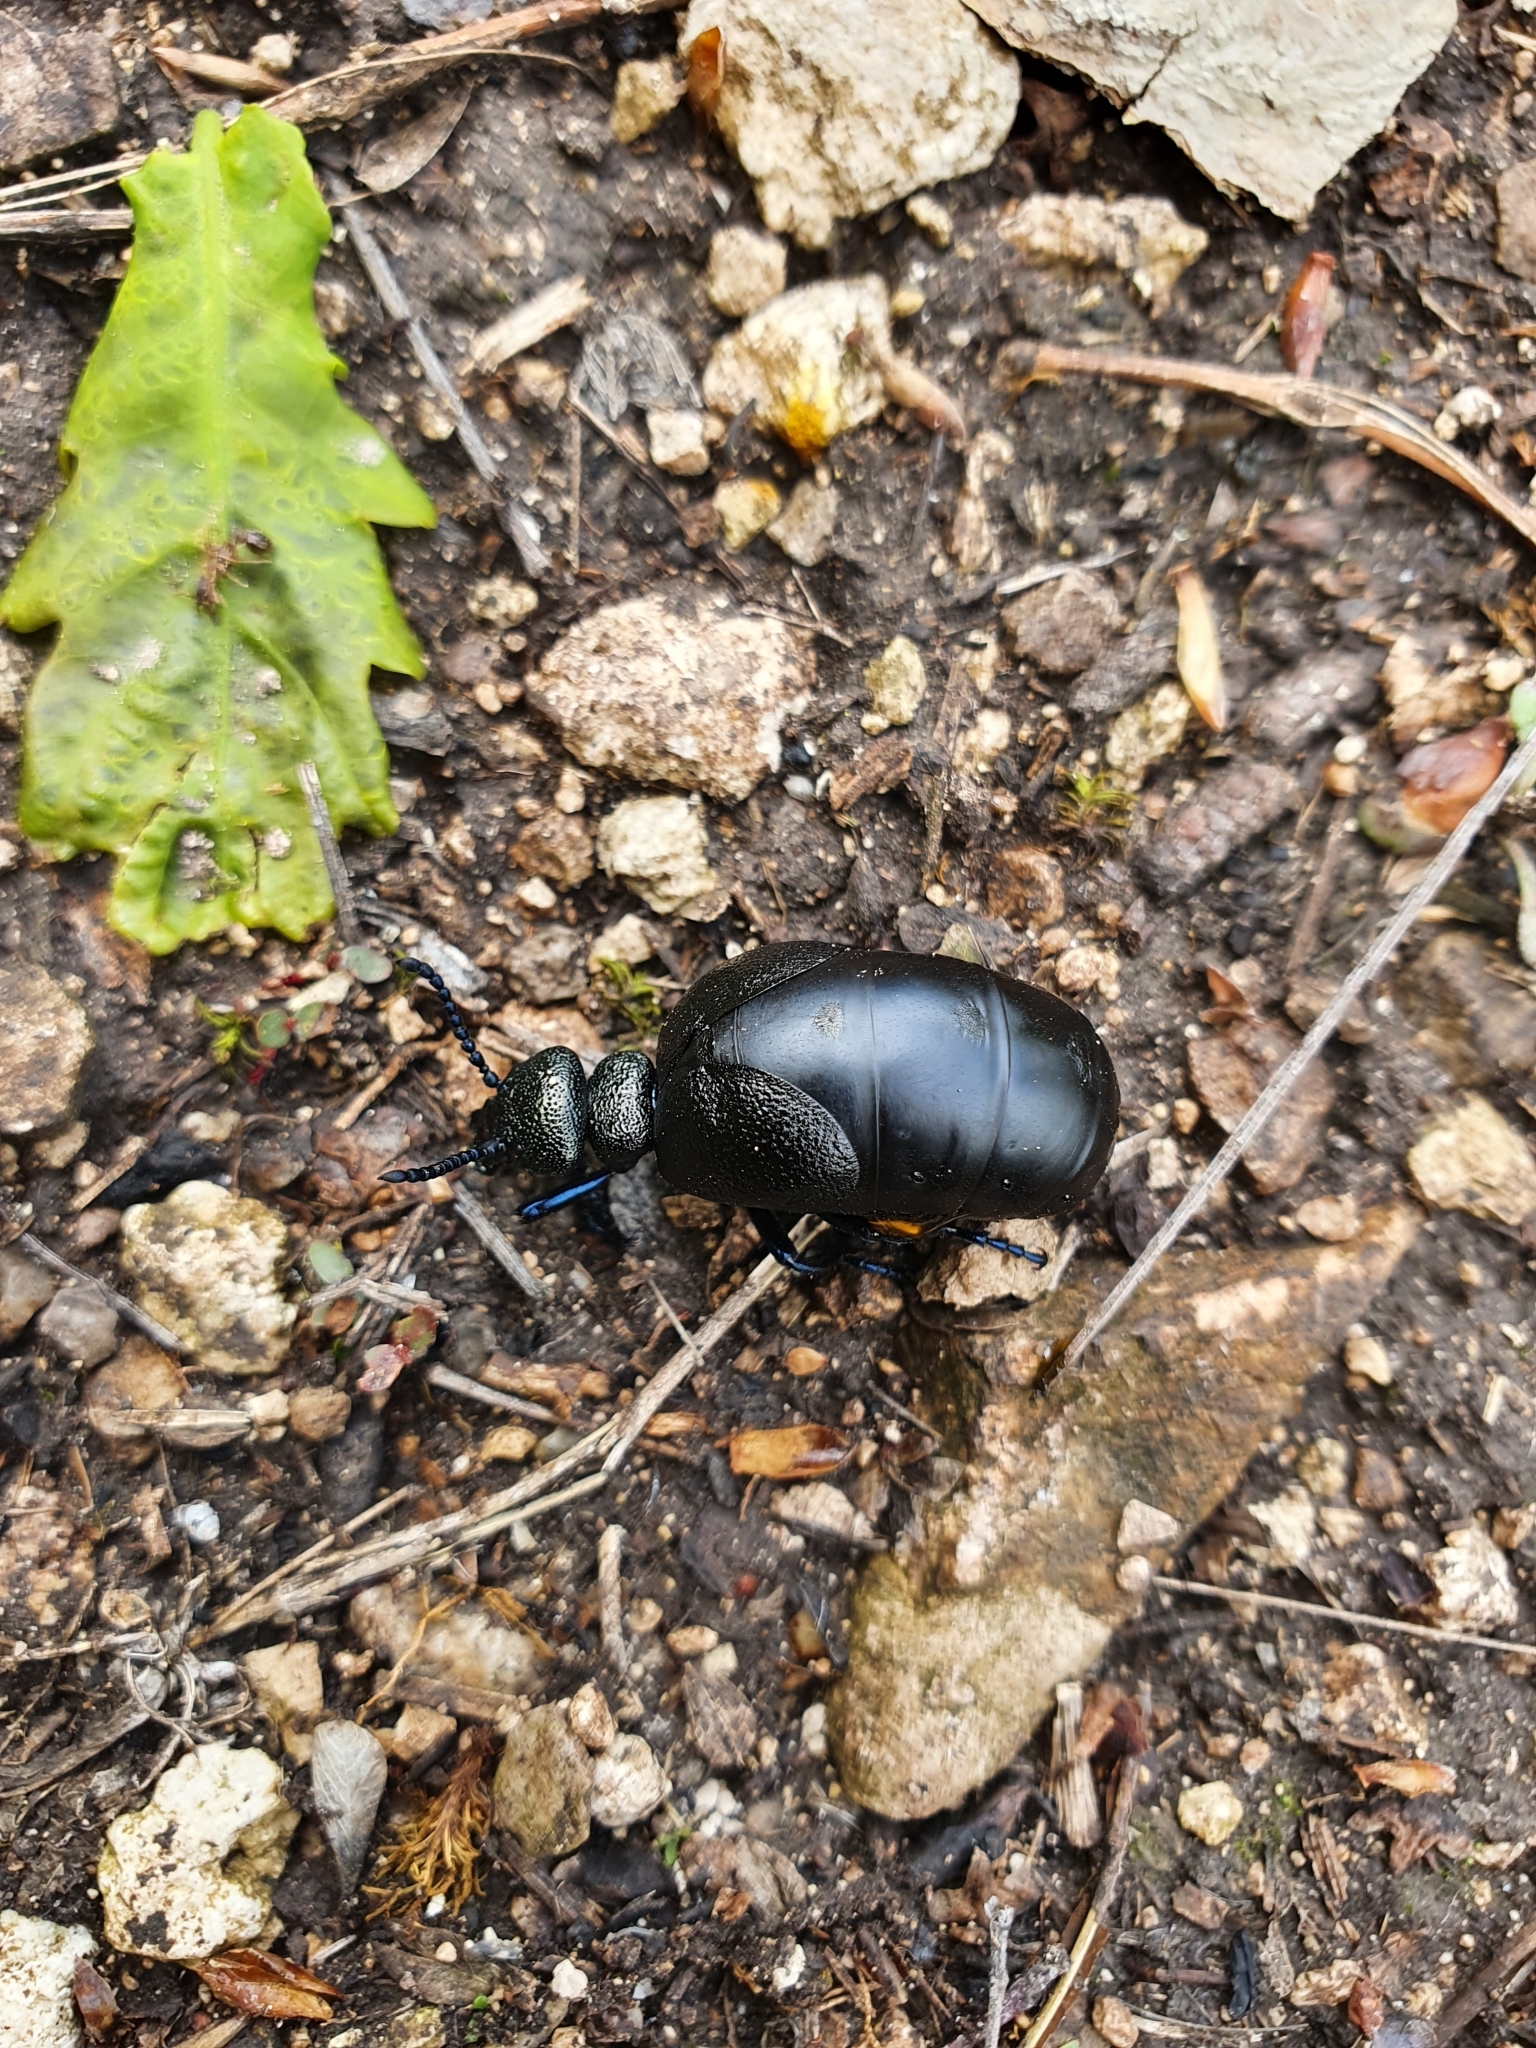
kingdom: Animalia
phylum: Arthropoda
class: Insecta
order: Coleoptera
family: Meloidae
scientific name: Meloidae
